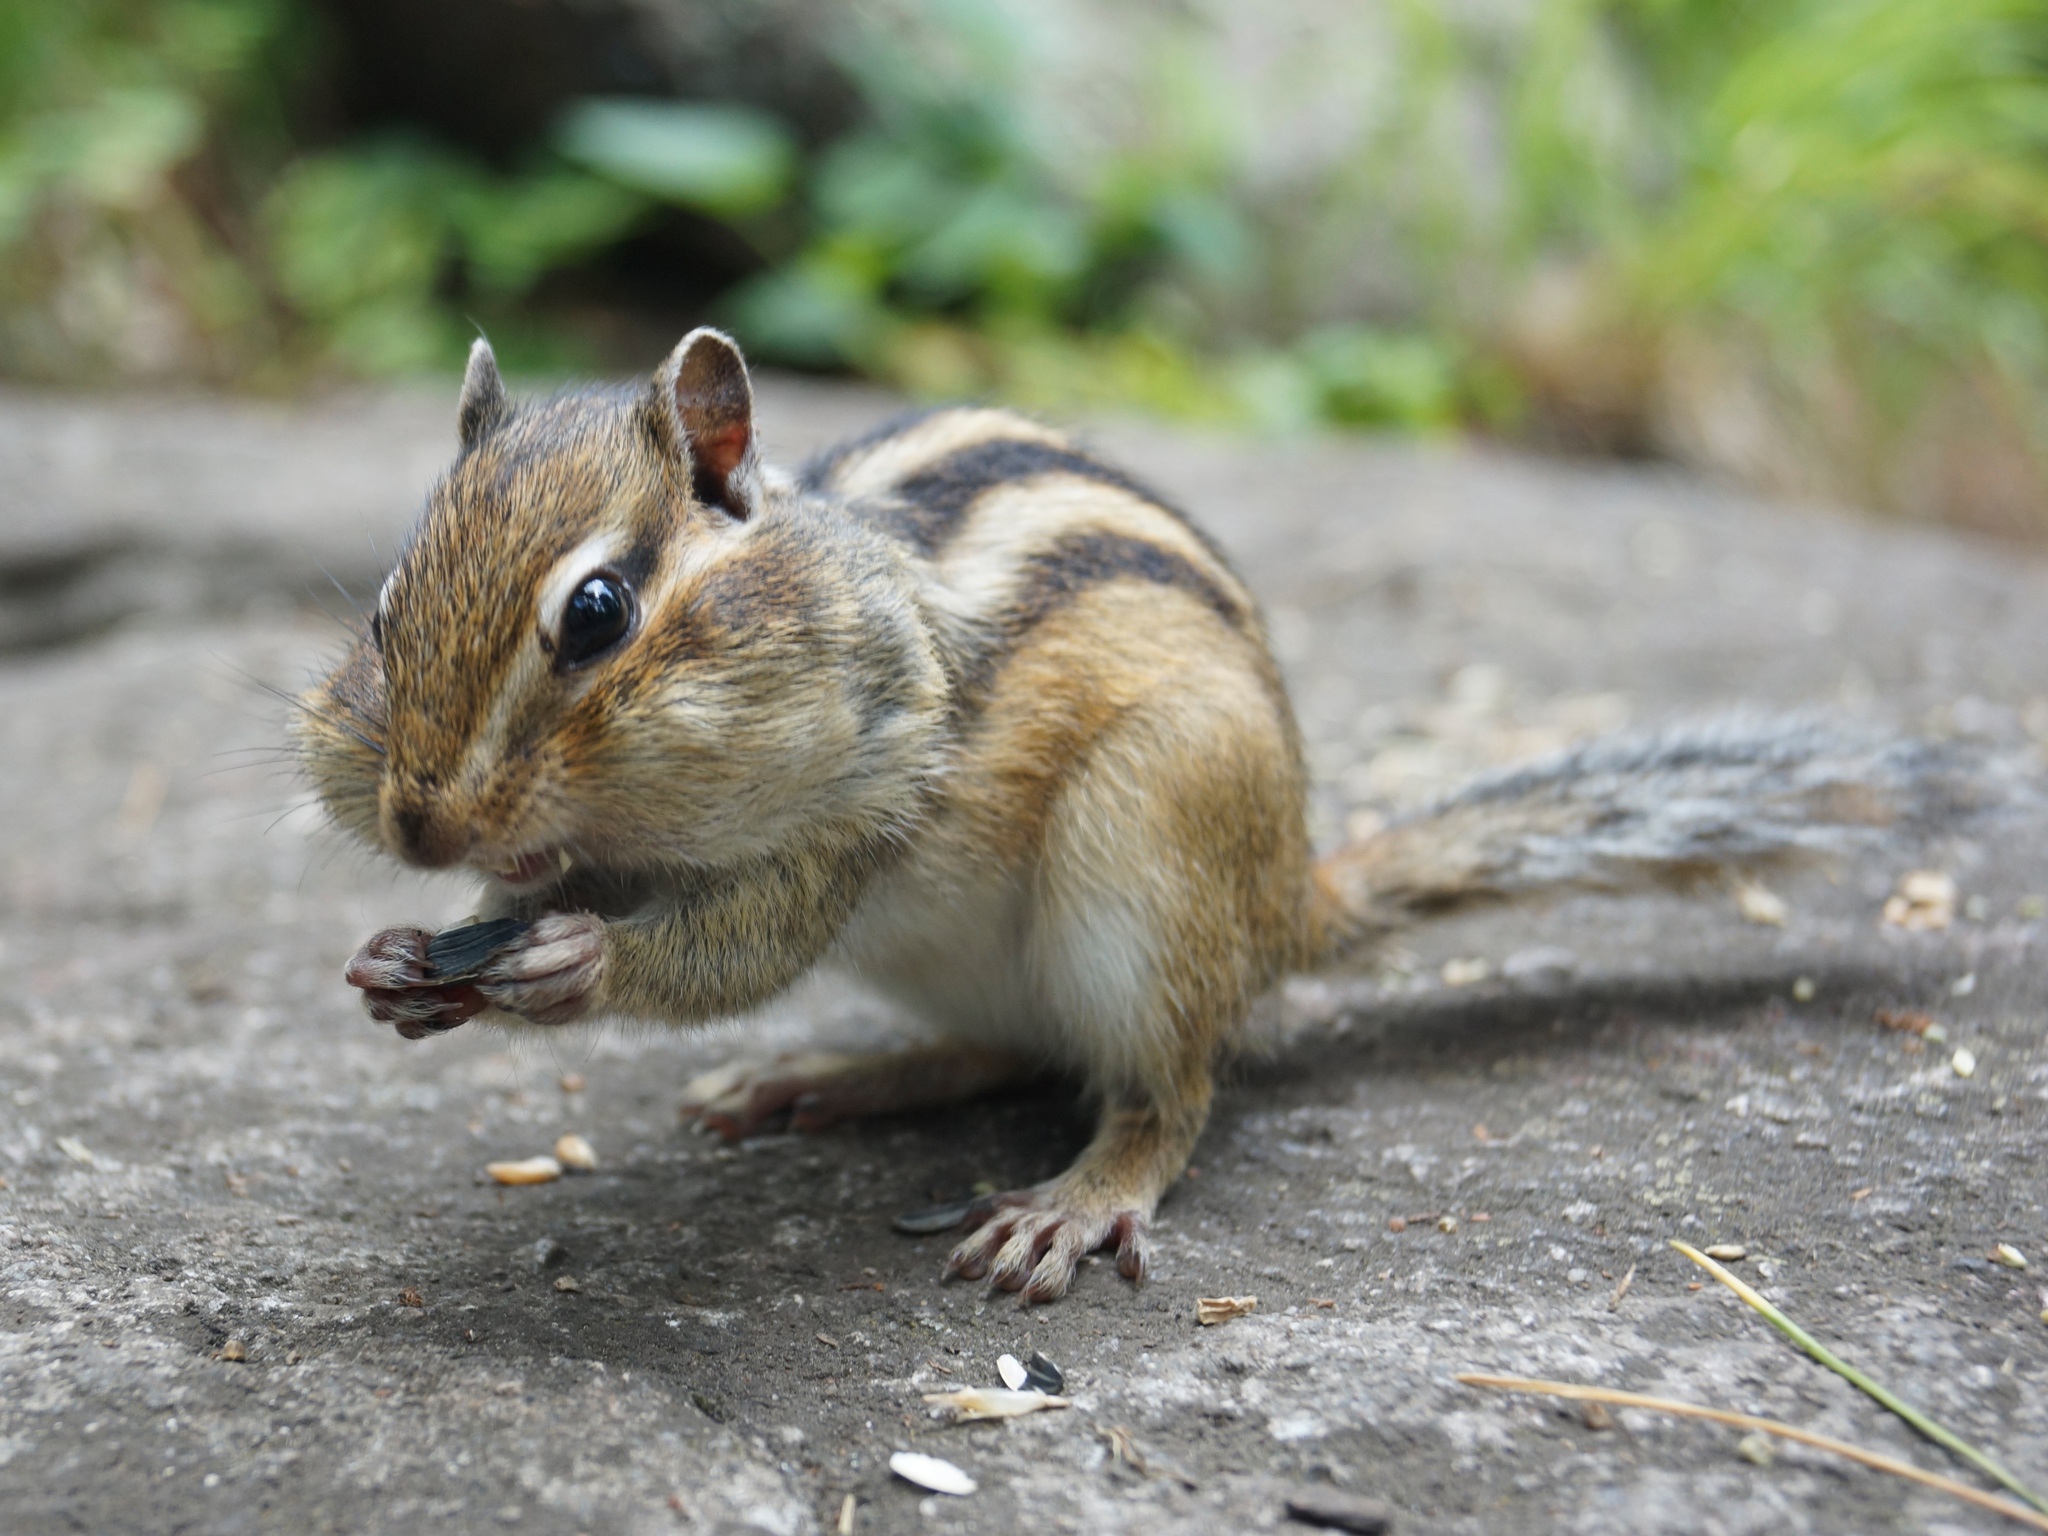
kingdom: Animalia
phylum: Chordata
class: Mammalia
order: Rodentia
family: Sciuridae
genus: Tamias
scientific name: Tamias sibiricus
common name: Siberian chipmunk
